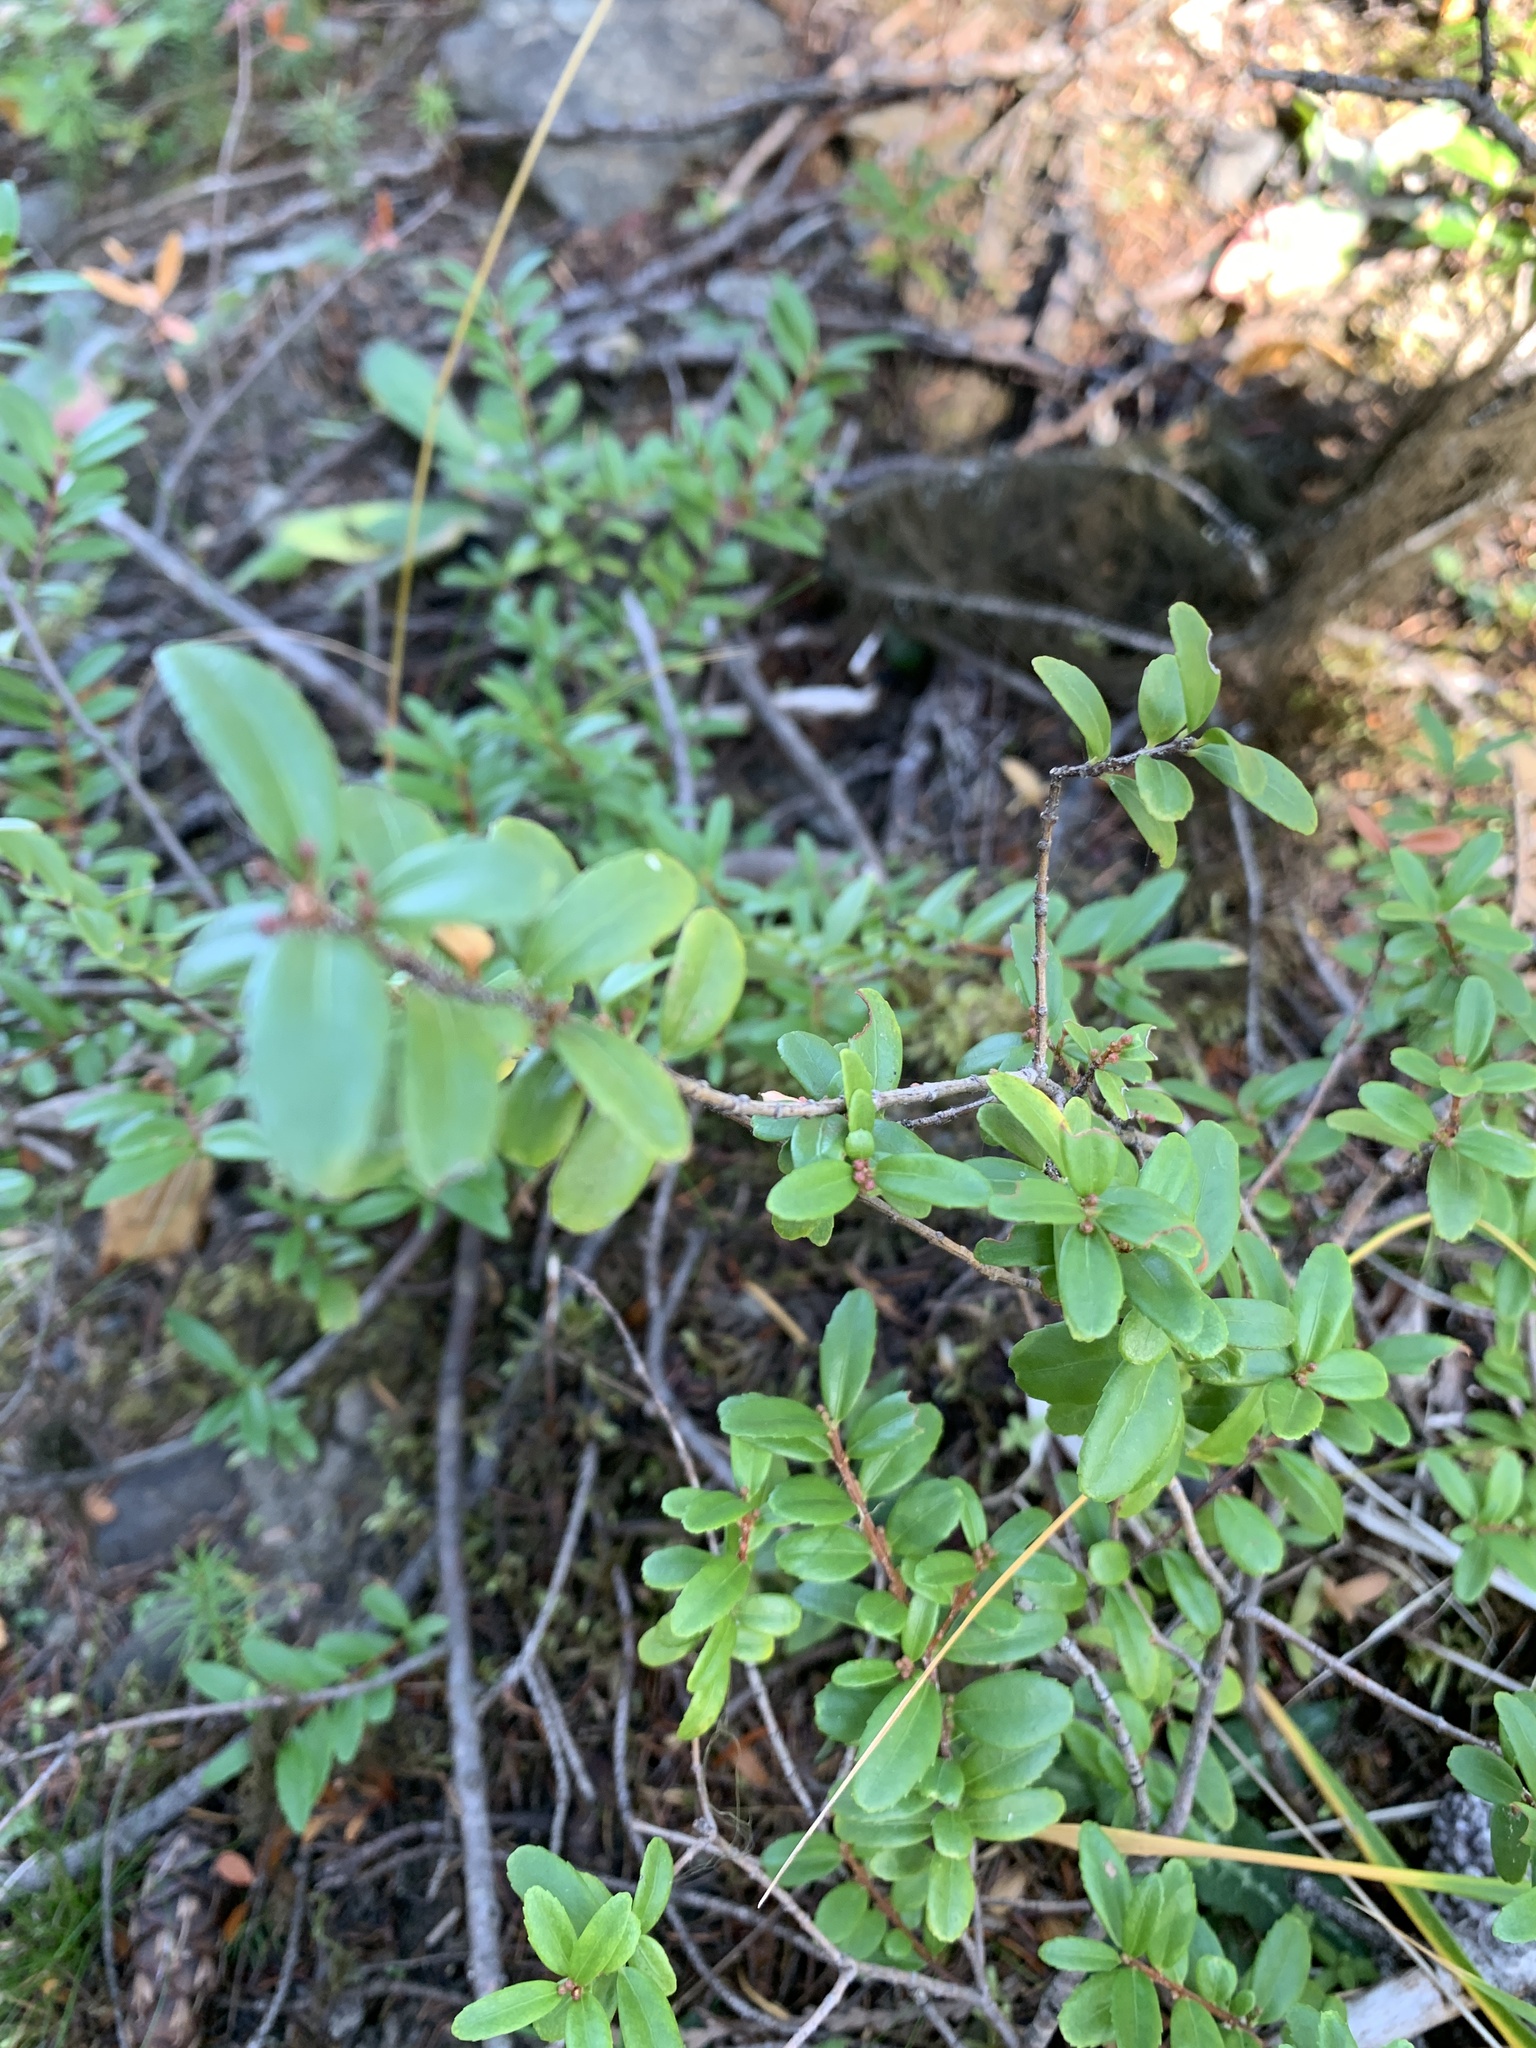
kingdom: Plantae
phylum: Tracheophyta
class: Magnoliopsida
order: Celastrales
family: Celastraceae
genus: Paxistima
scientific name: Paxistima myrsinites
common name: Mountain-lover
